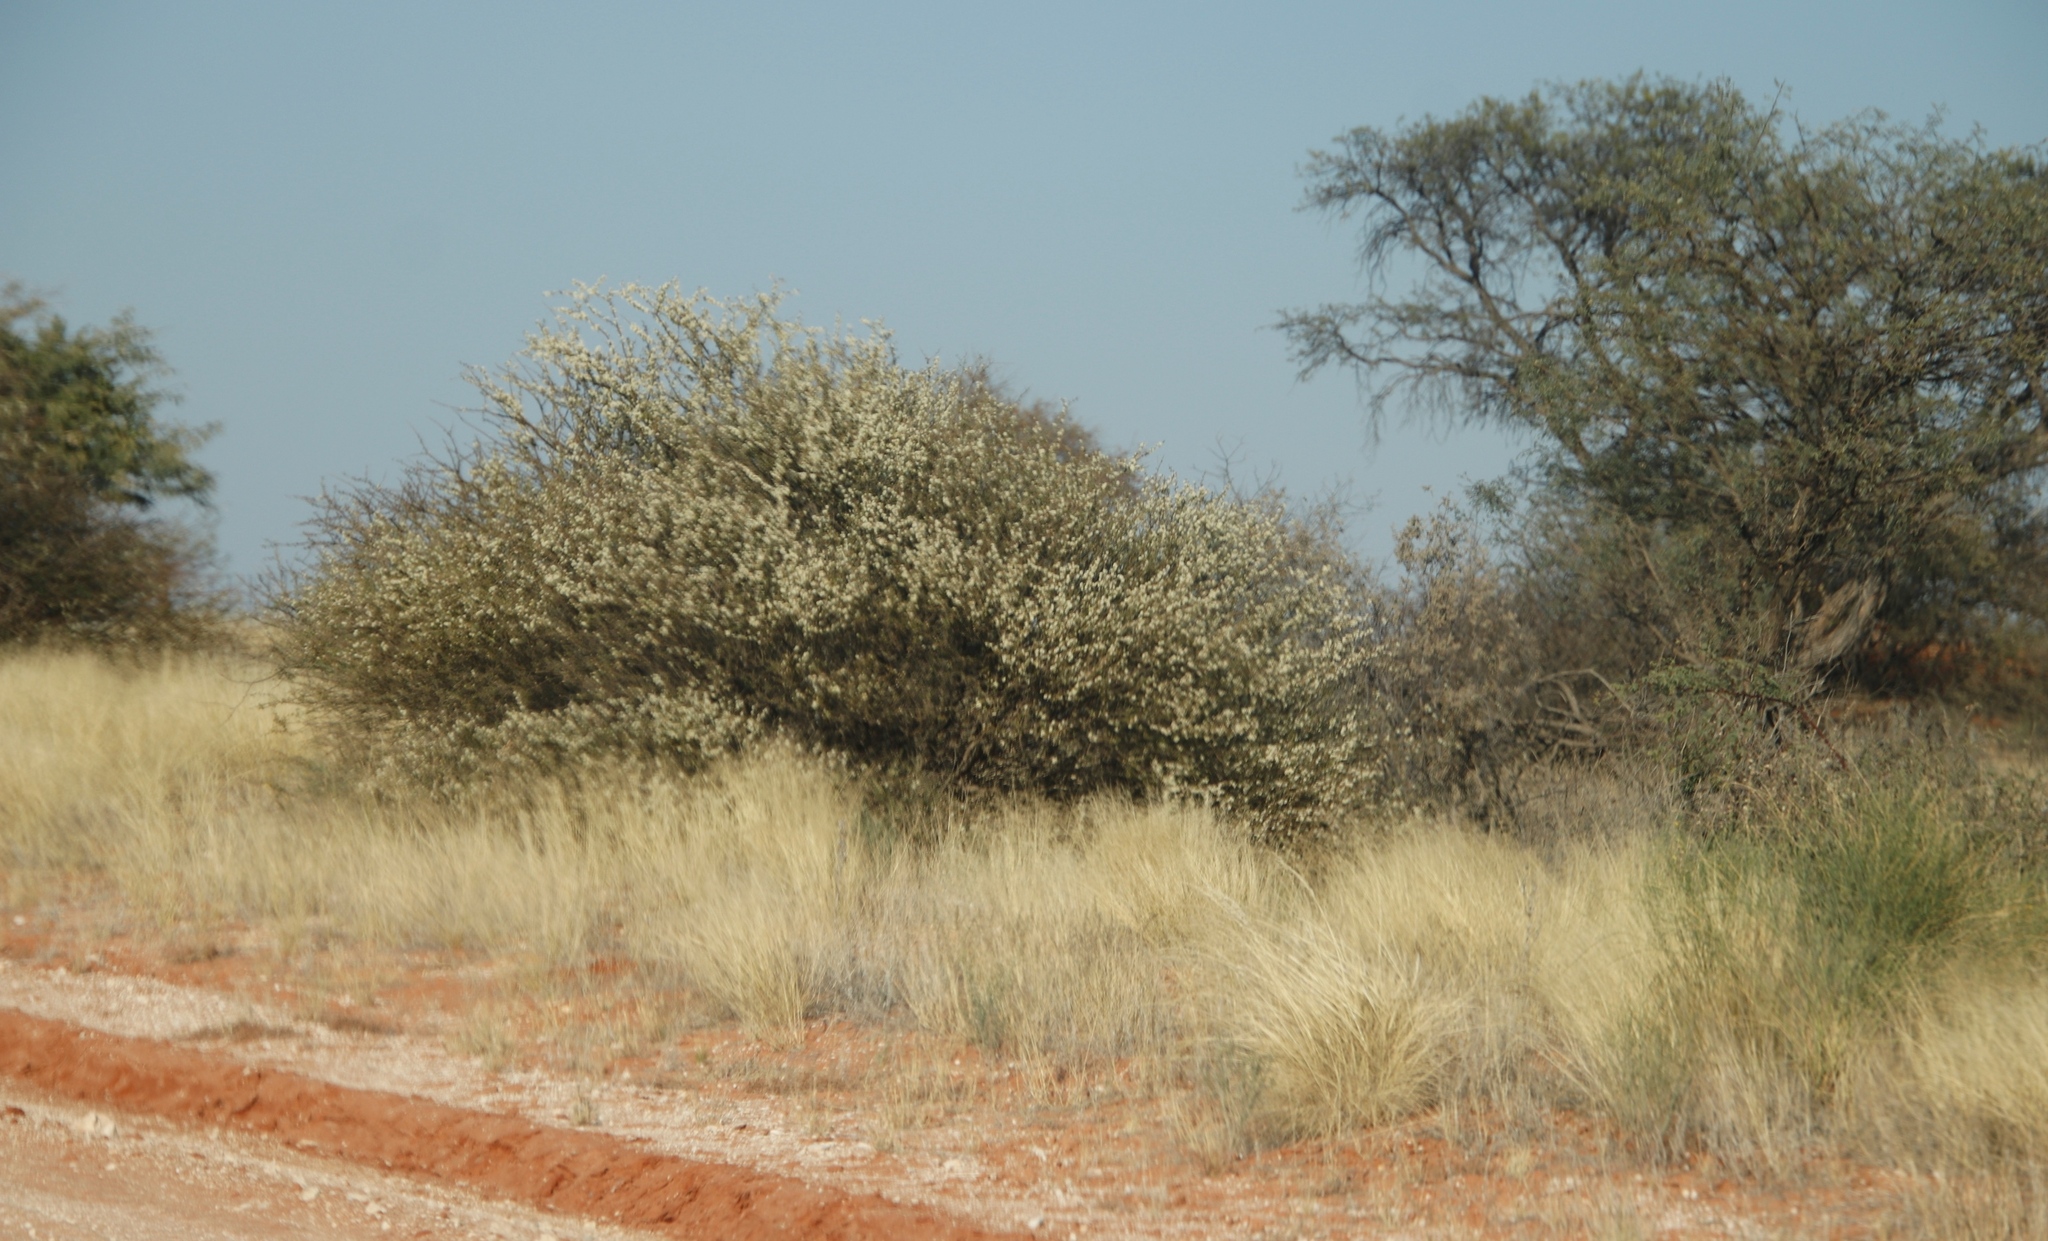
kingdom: Plantae
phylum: Tracheophyta
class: Magnoliopsida
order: Fabales
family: Fabaceae
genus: Senegalia
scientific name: Senegalia mellifera
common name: Hookthorn
